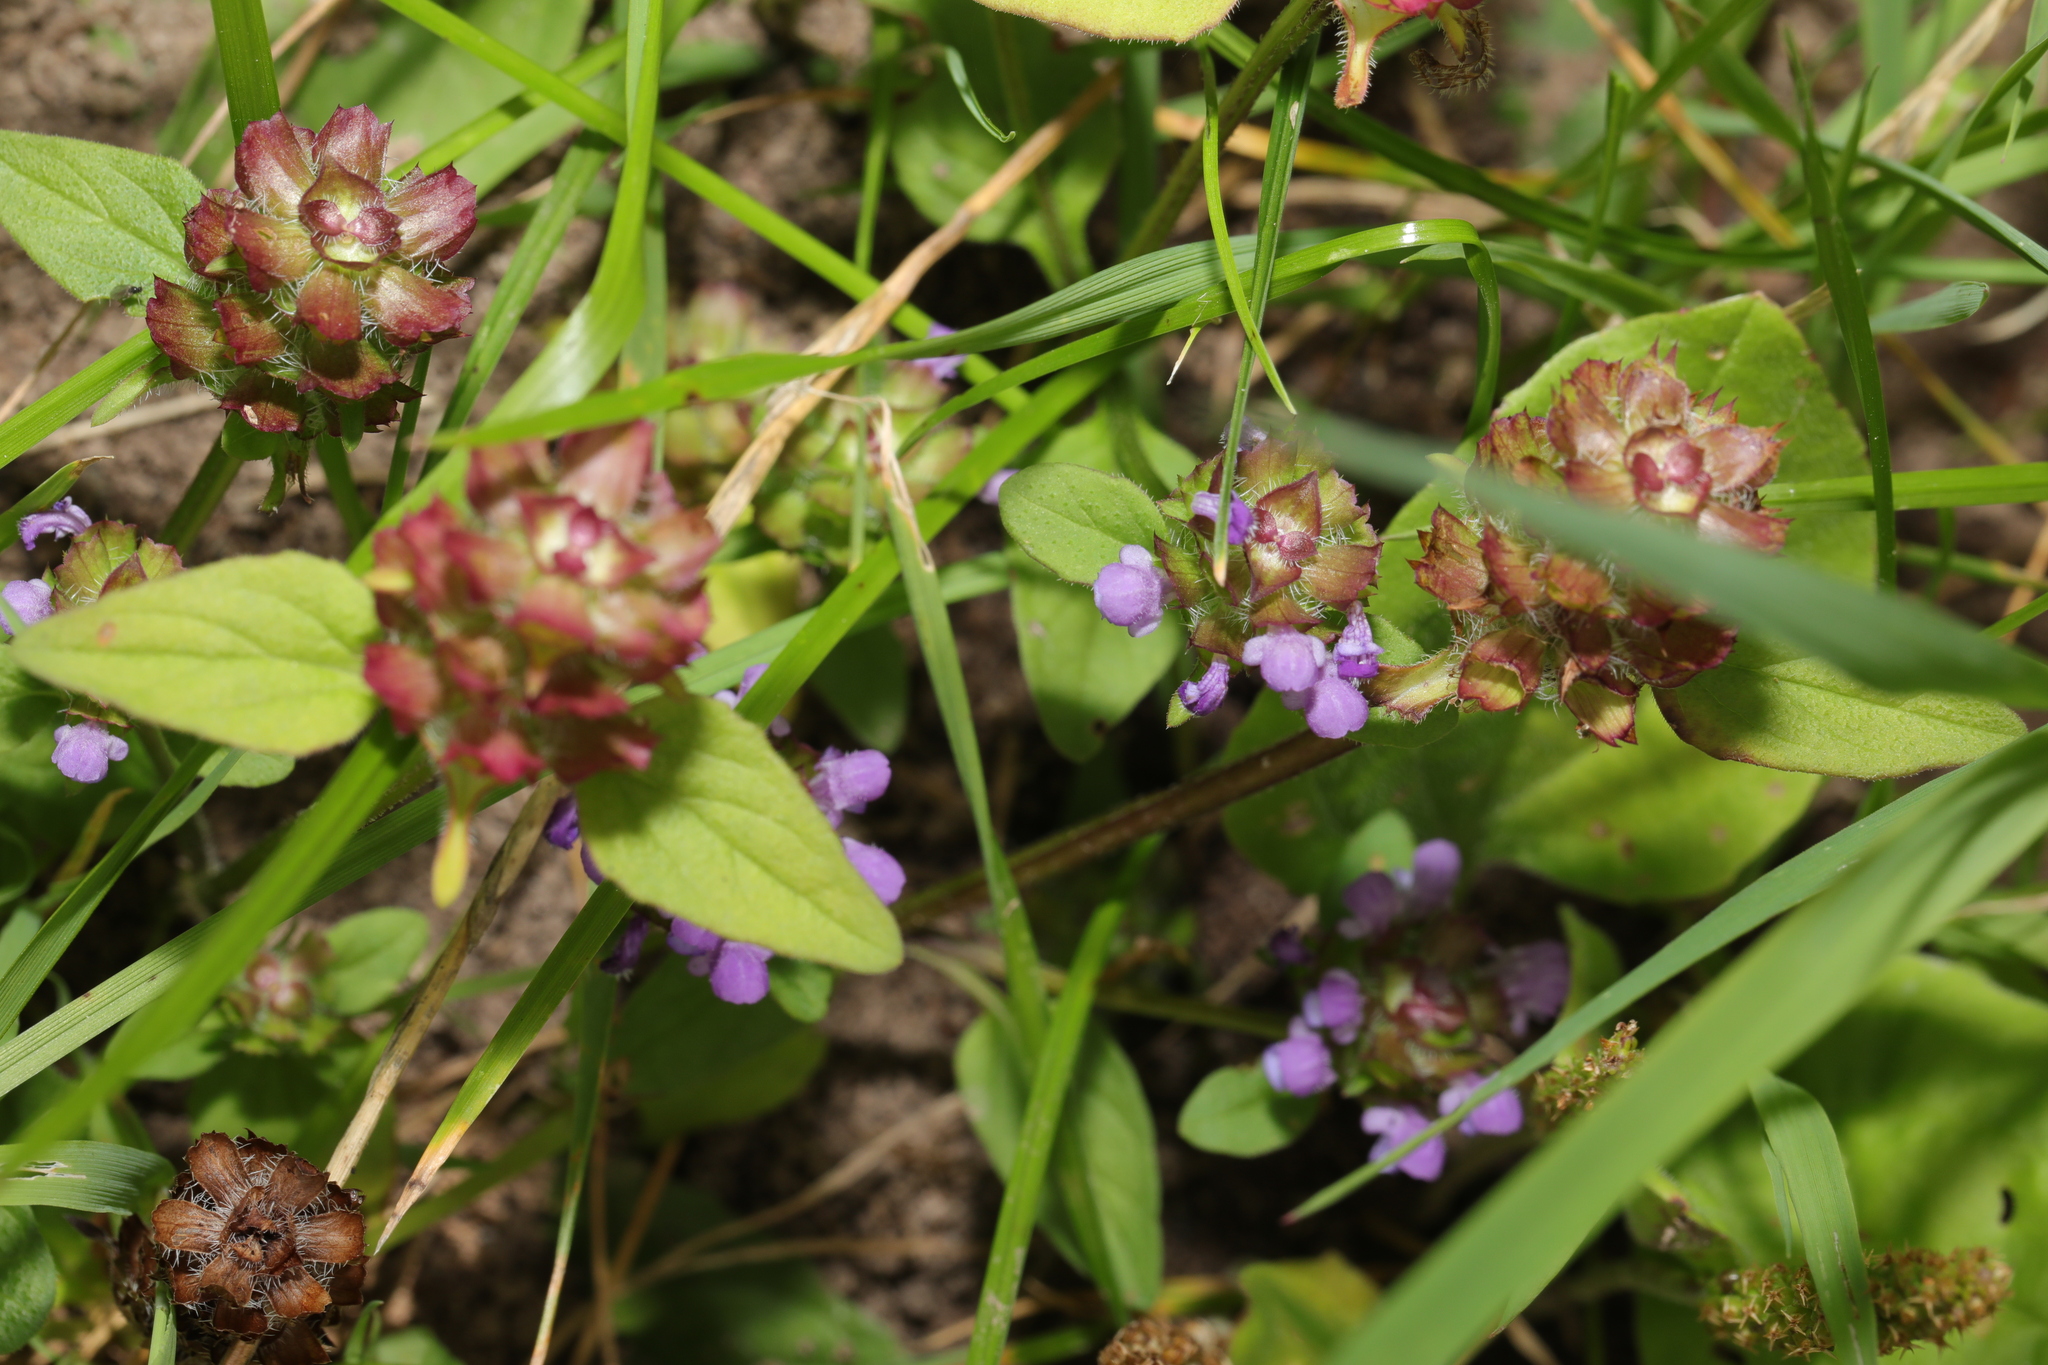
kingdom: Plantae
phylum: Tracheophyta
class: Magnoliopsida
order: Lamiales
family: Lamiaceae
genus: Prunella
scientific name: Prunella vulgaris
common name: Heal-all
